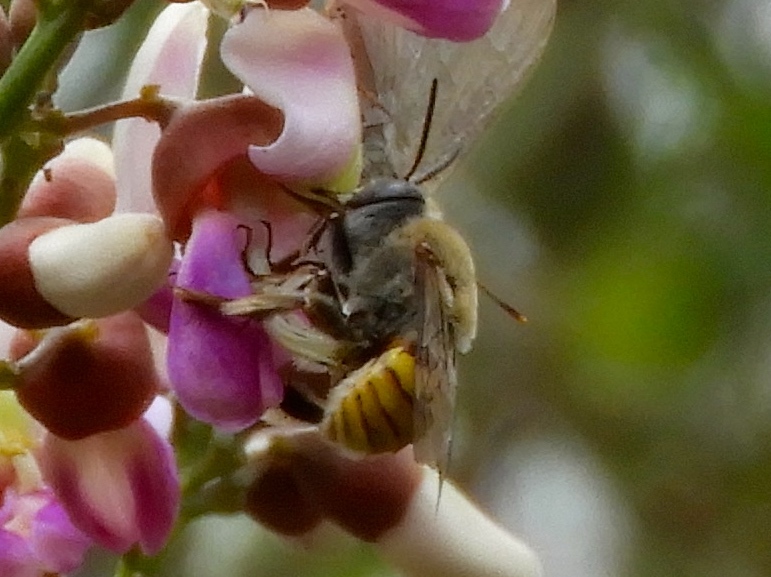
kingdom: Animalia
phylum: Arthropoda
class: Insecta
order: Hymenoptera
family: Apidae
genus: Centris
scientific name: Centris
